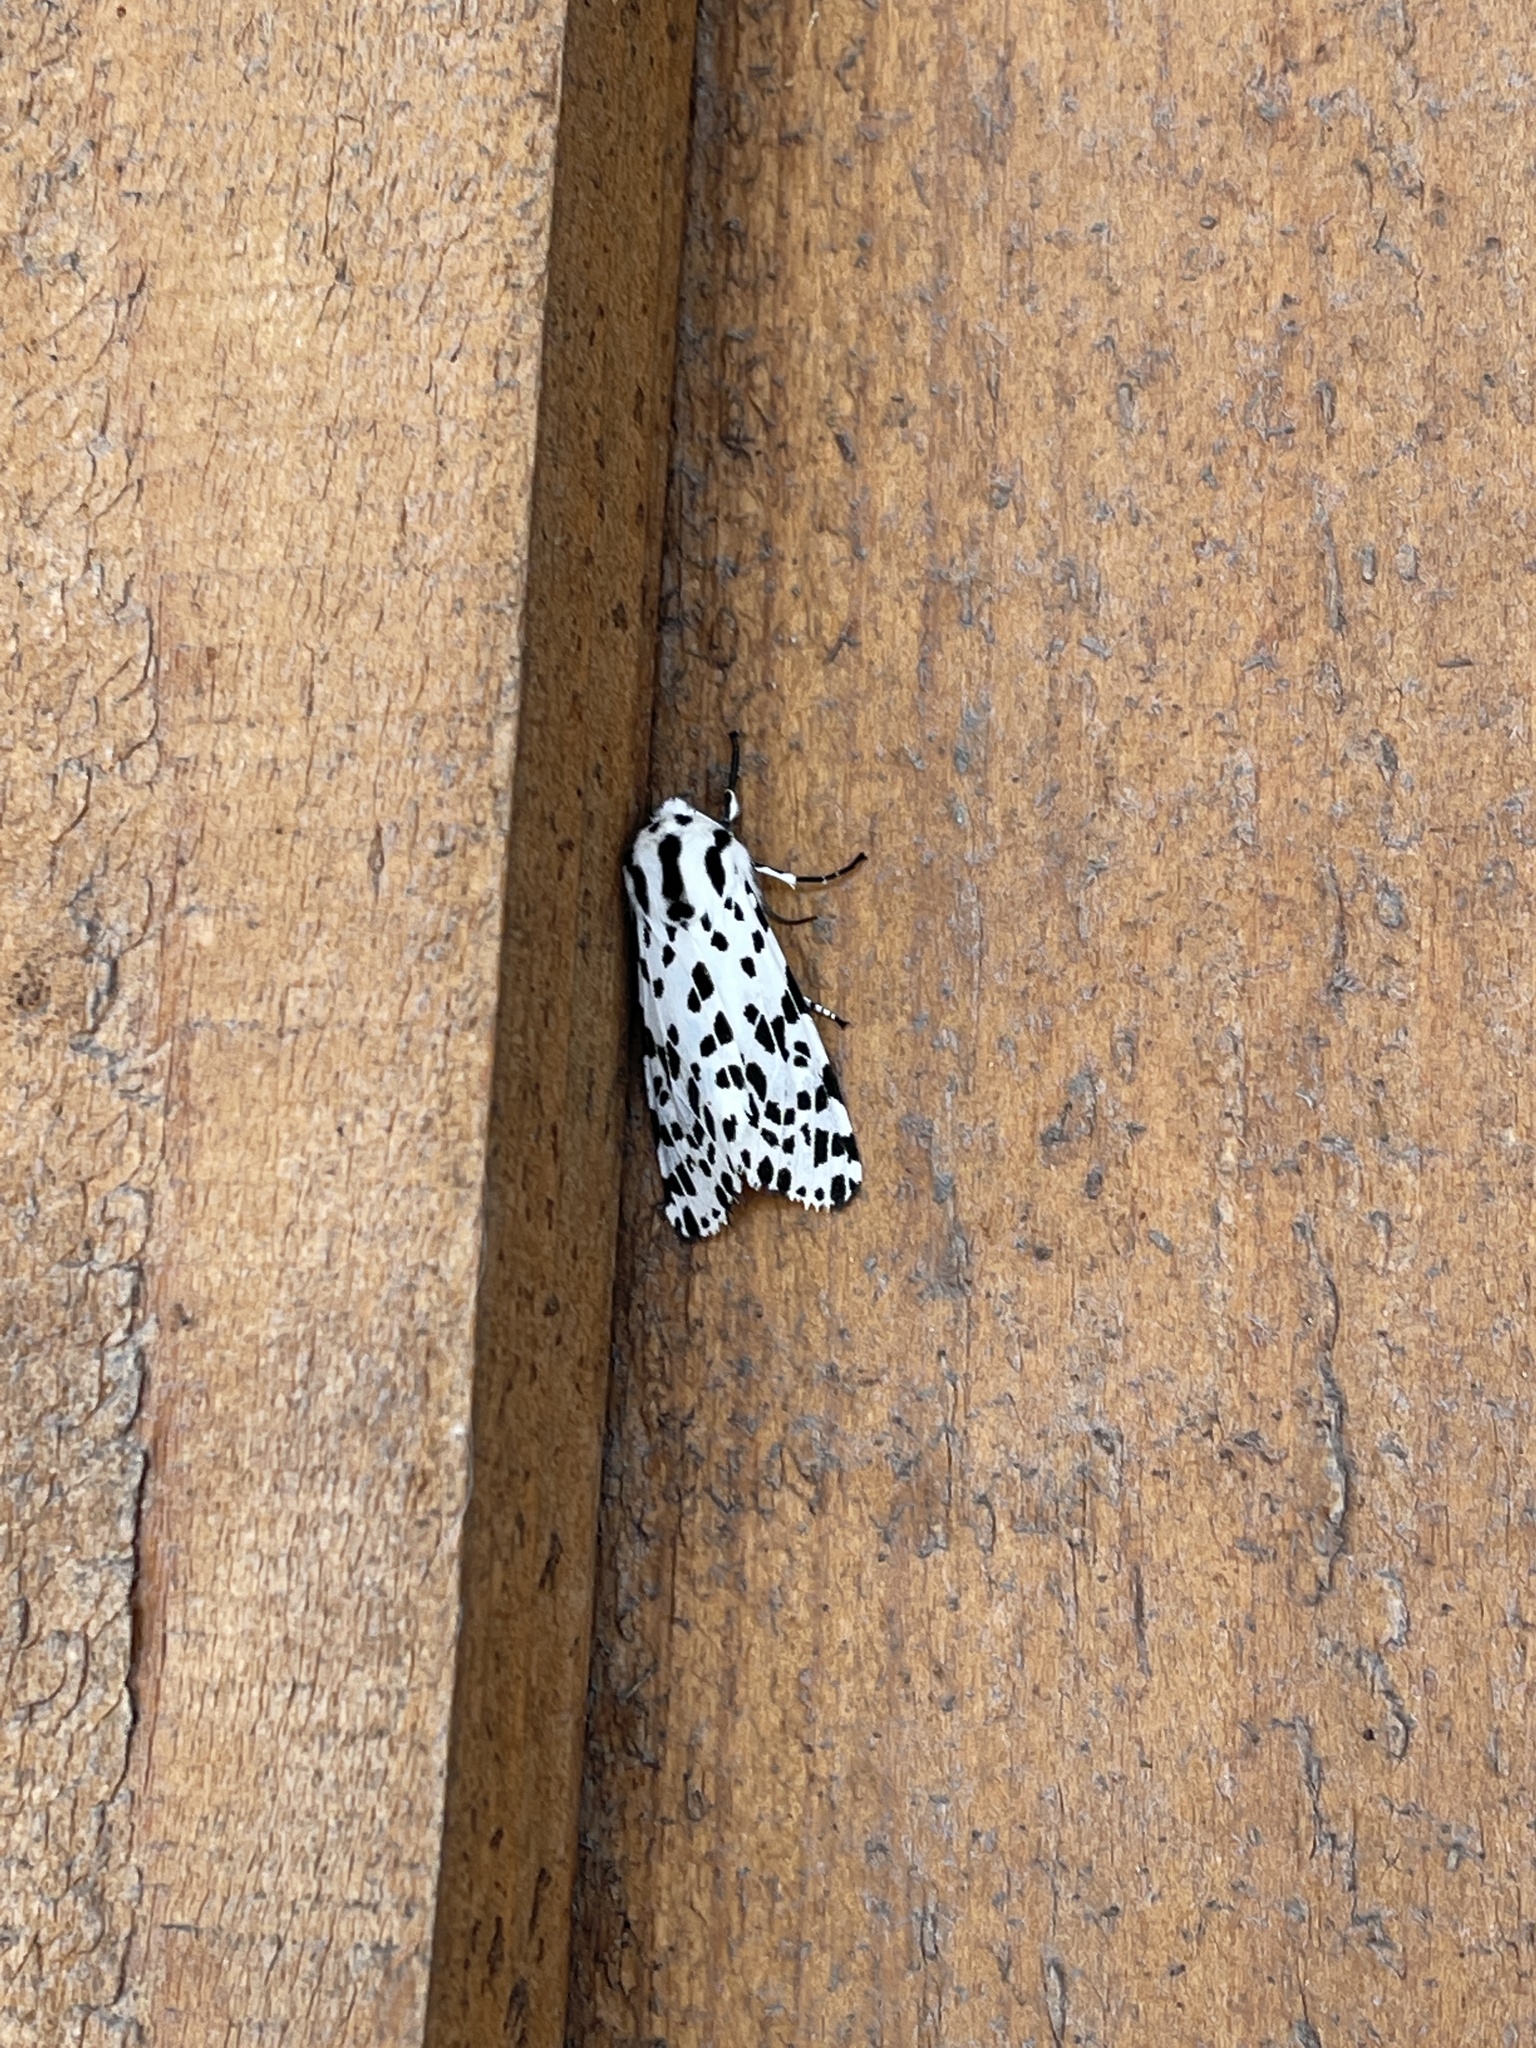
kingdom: Animalia
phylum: Arthropoda
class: Insecta
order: Lepidoptera
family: Erebidae
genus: Hypercompe
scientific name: Hypercompe permaculata
